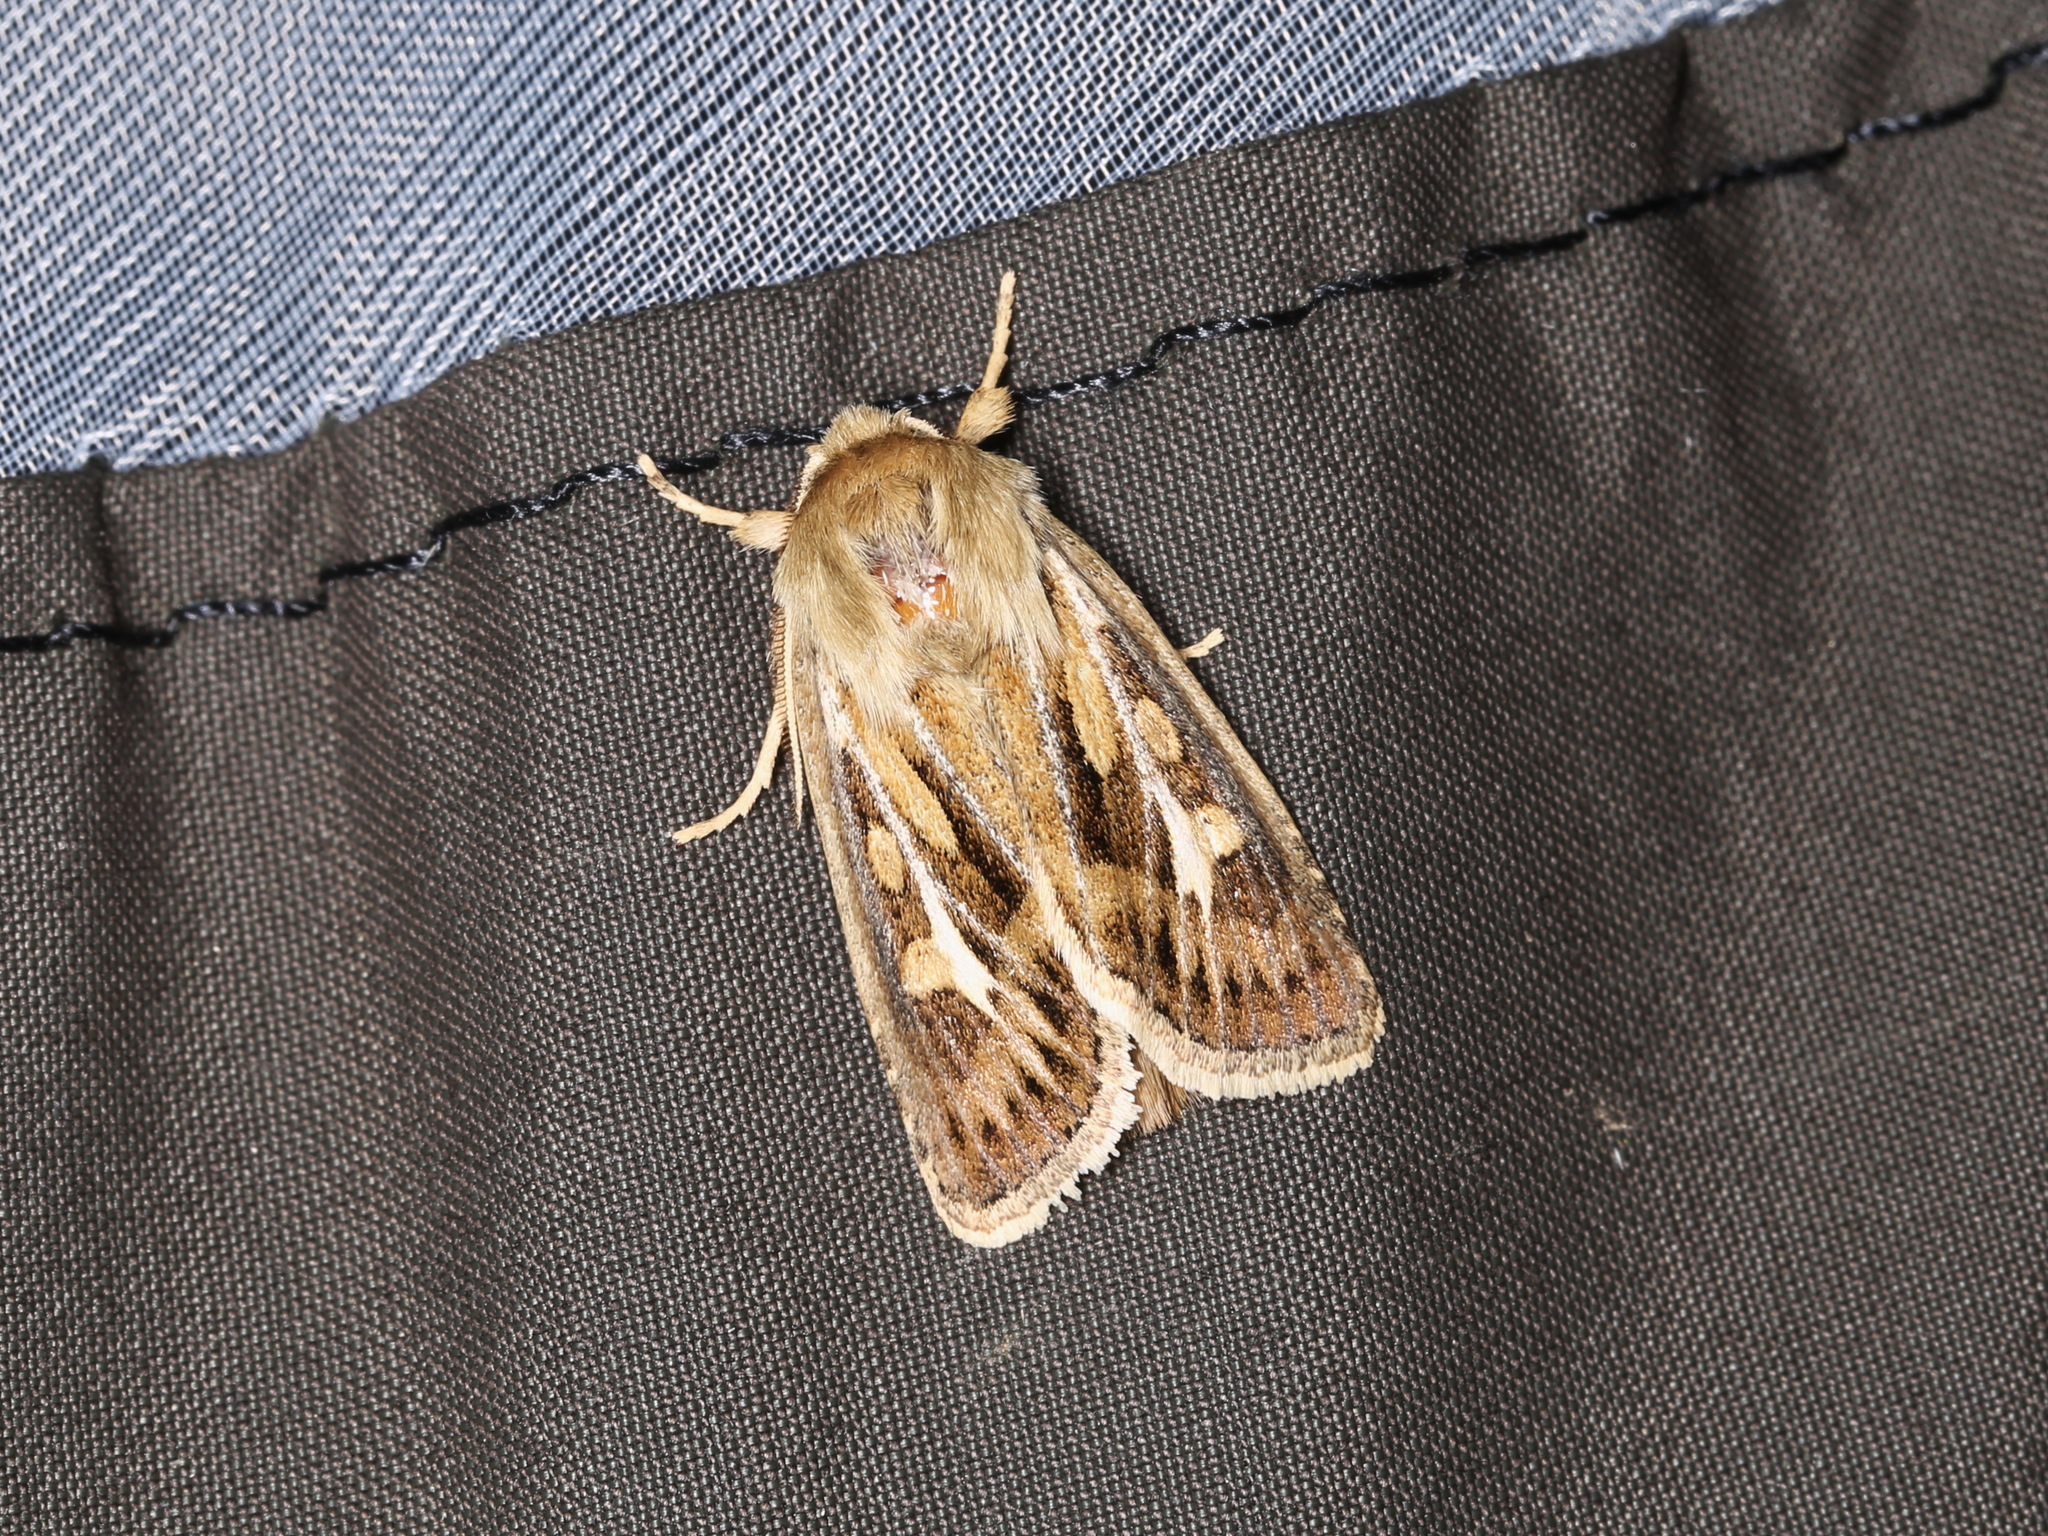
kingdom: Animalia
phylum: Arthropoda
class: Insecta
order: Lepidoptera
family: Noctuidae
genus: Cerapteryx
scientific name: Cerapteryx graminis
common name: Antler moth
